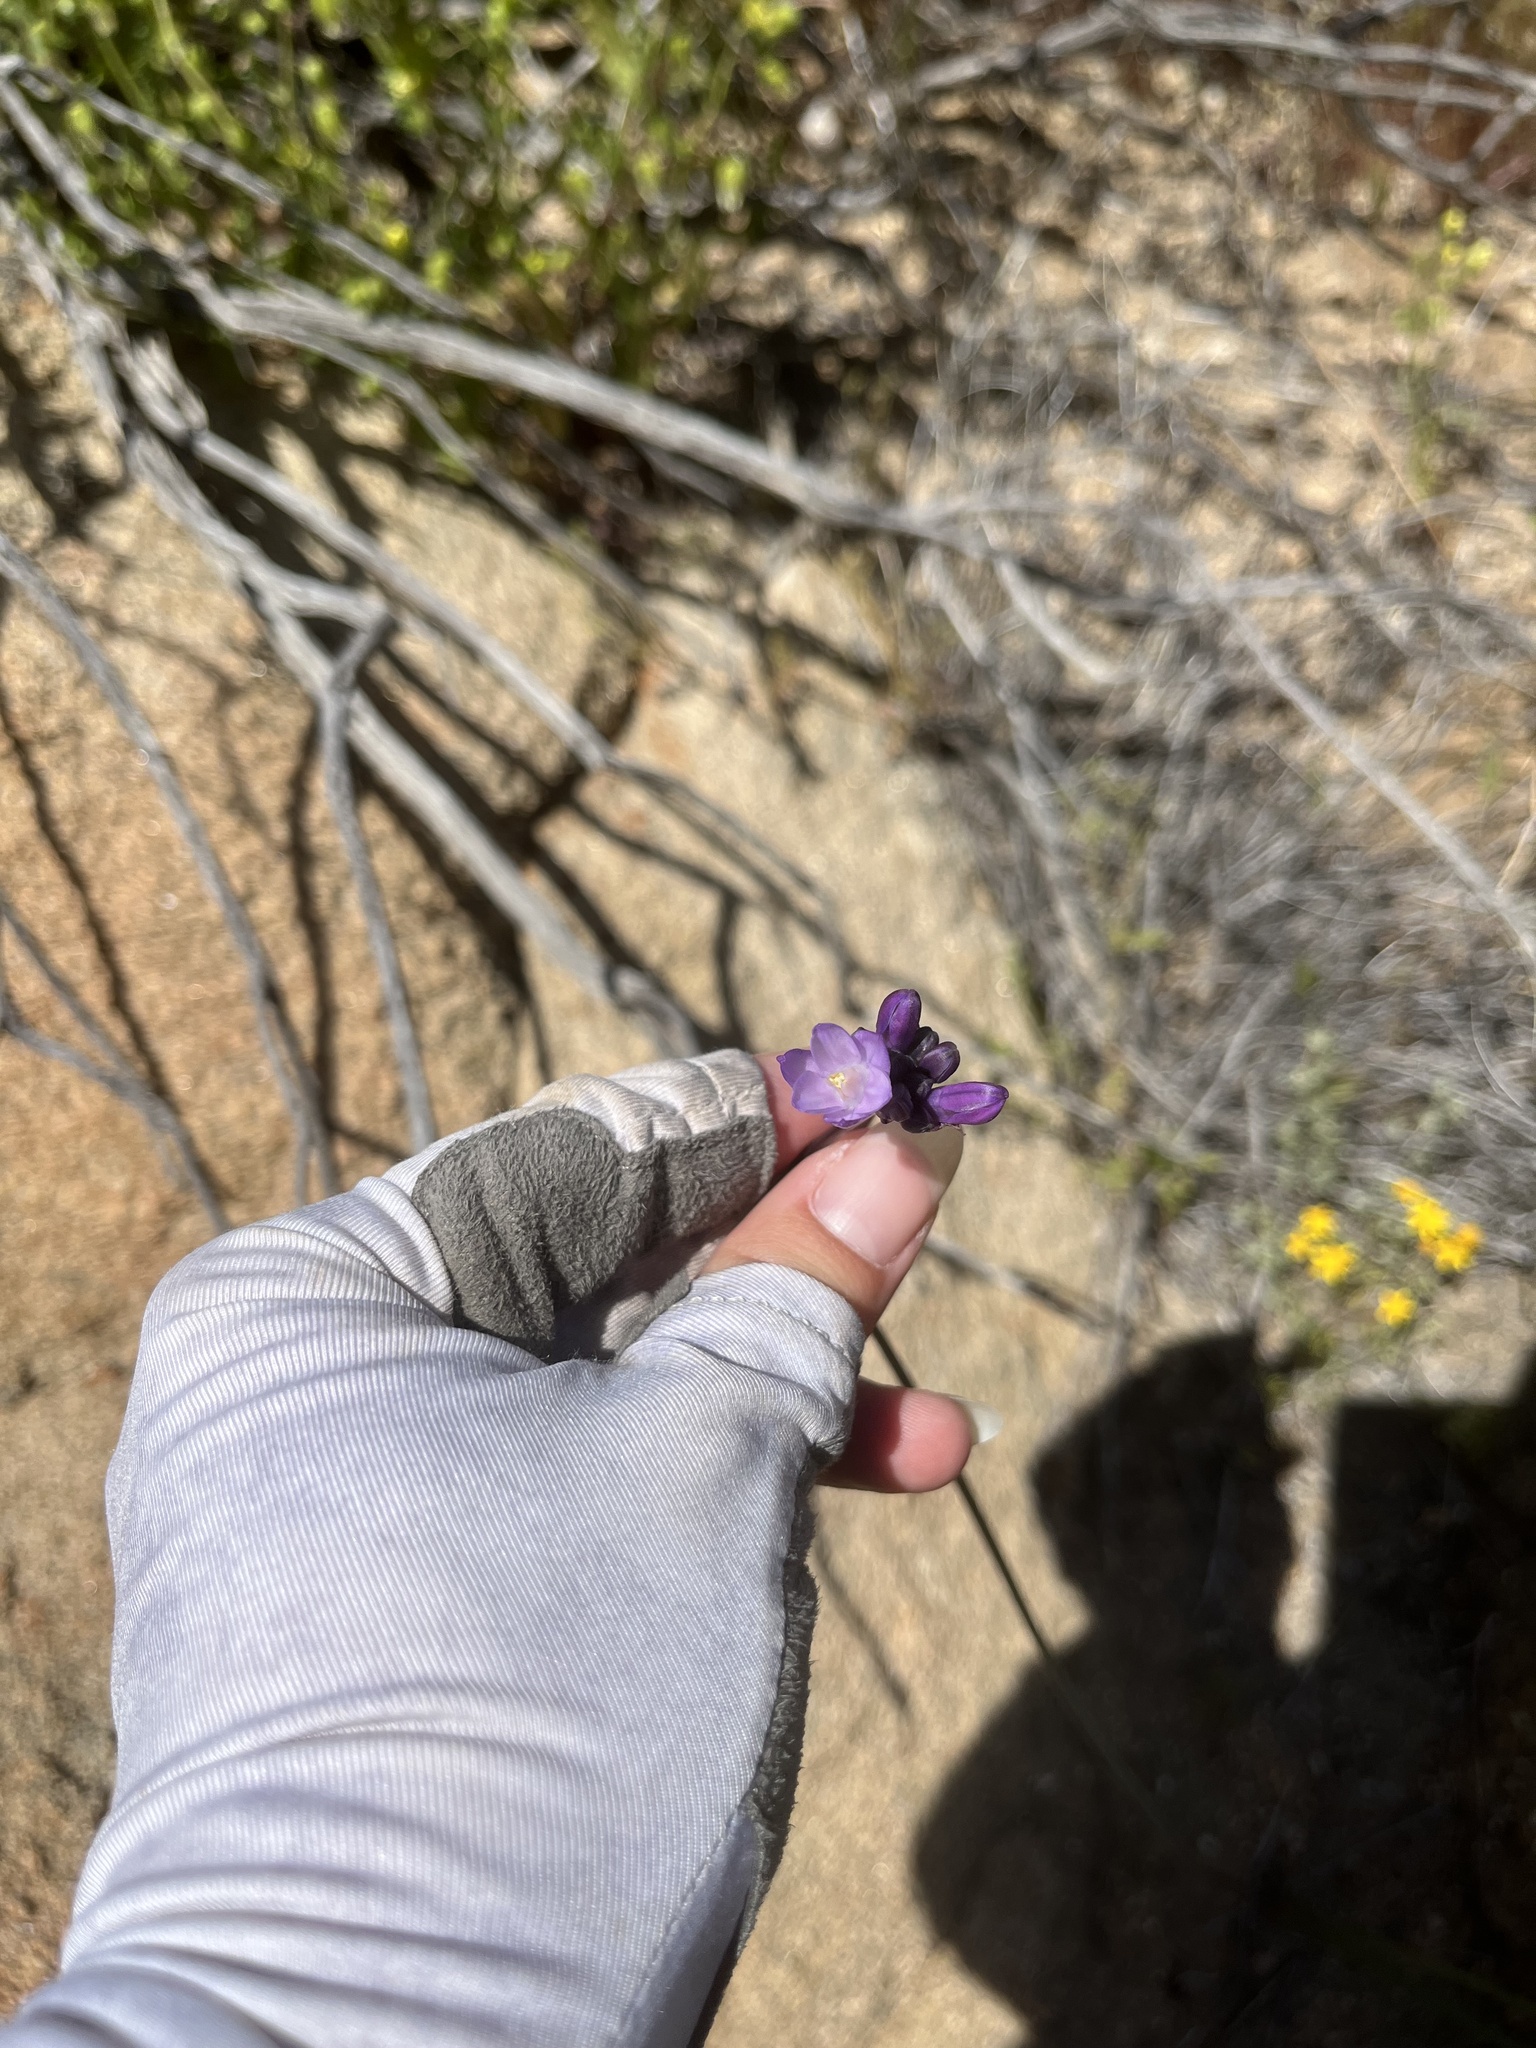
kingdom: Plantae
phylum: Tracheophyta
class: Liliopsida
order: Asparagales
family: Asparagaceae
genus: Dipterostemon
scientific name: Dipterostemon capitatus
